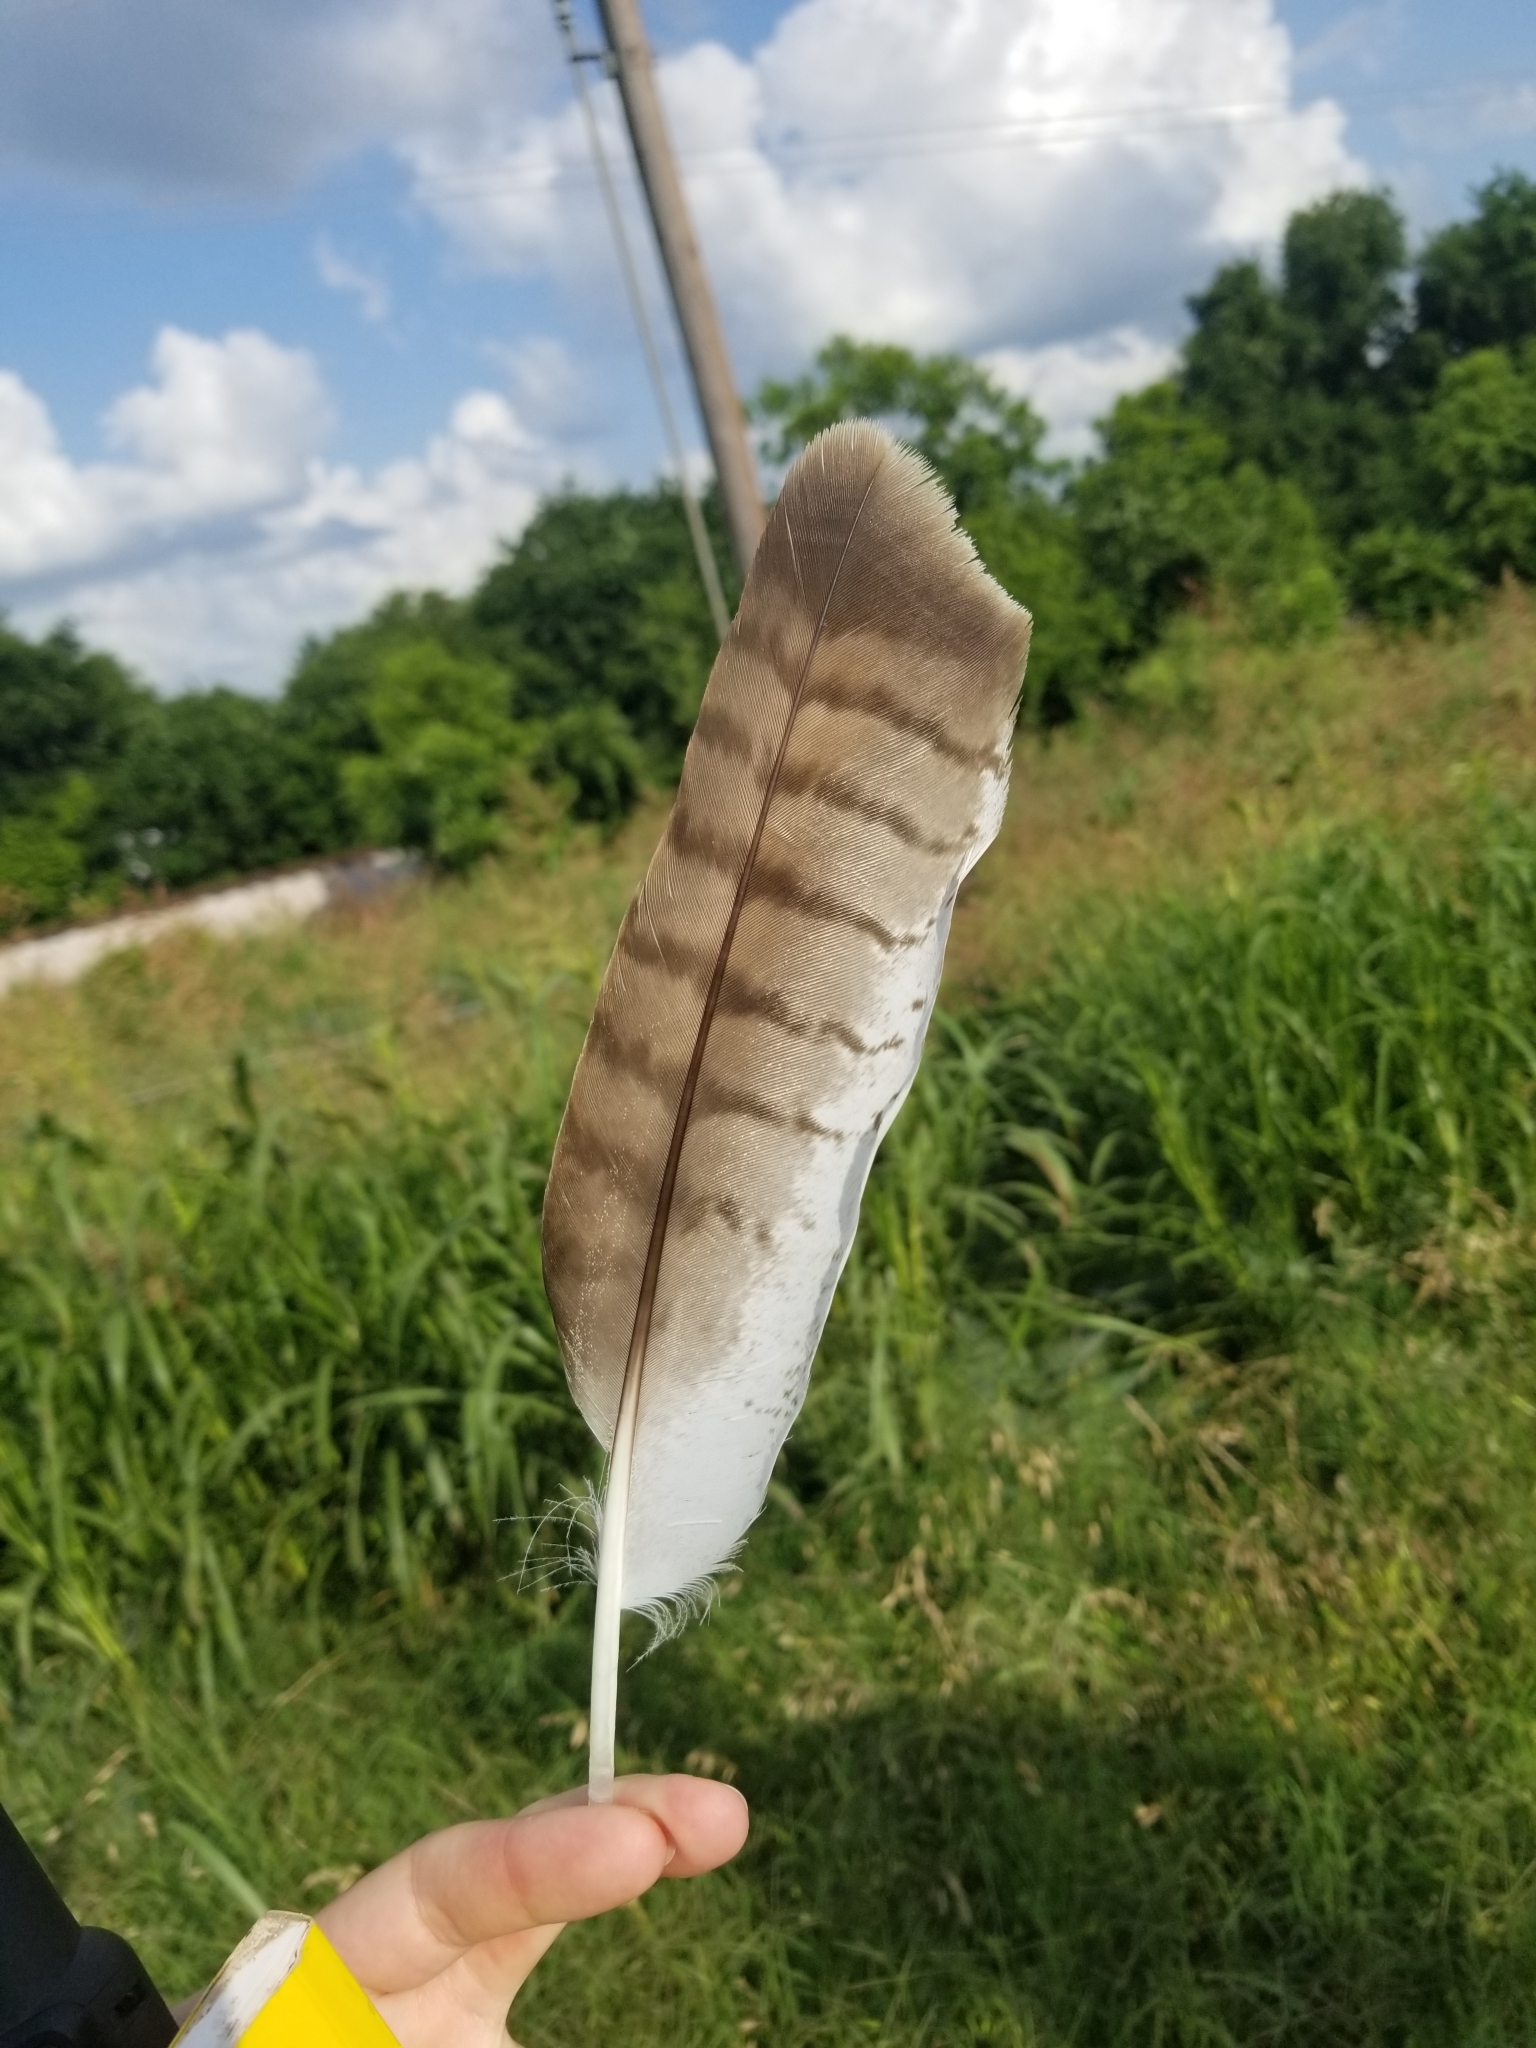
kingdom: Animalia
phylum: Chordata
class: Aves
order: Accipitriformes
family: Accipitridae
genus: Buteo
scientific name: Buteo jamaicensis
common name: Red-tailed hawk
